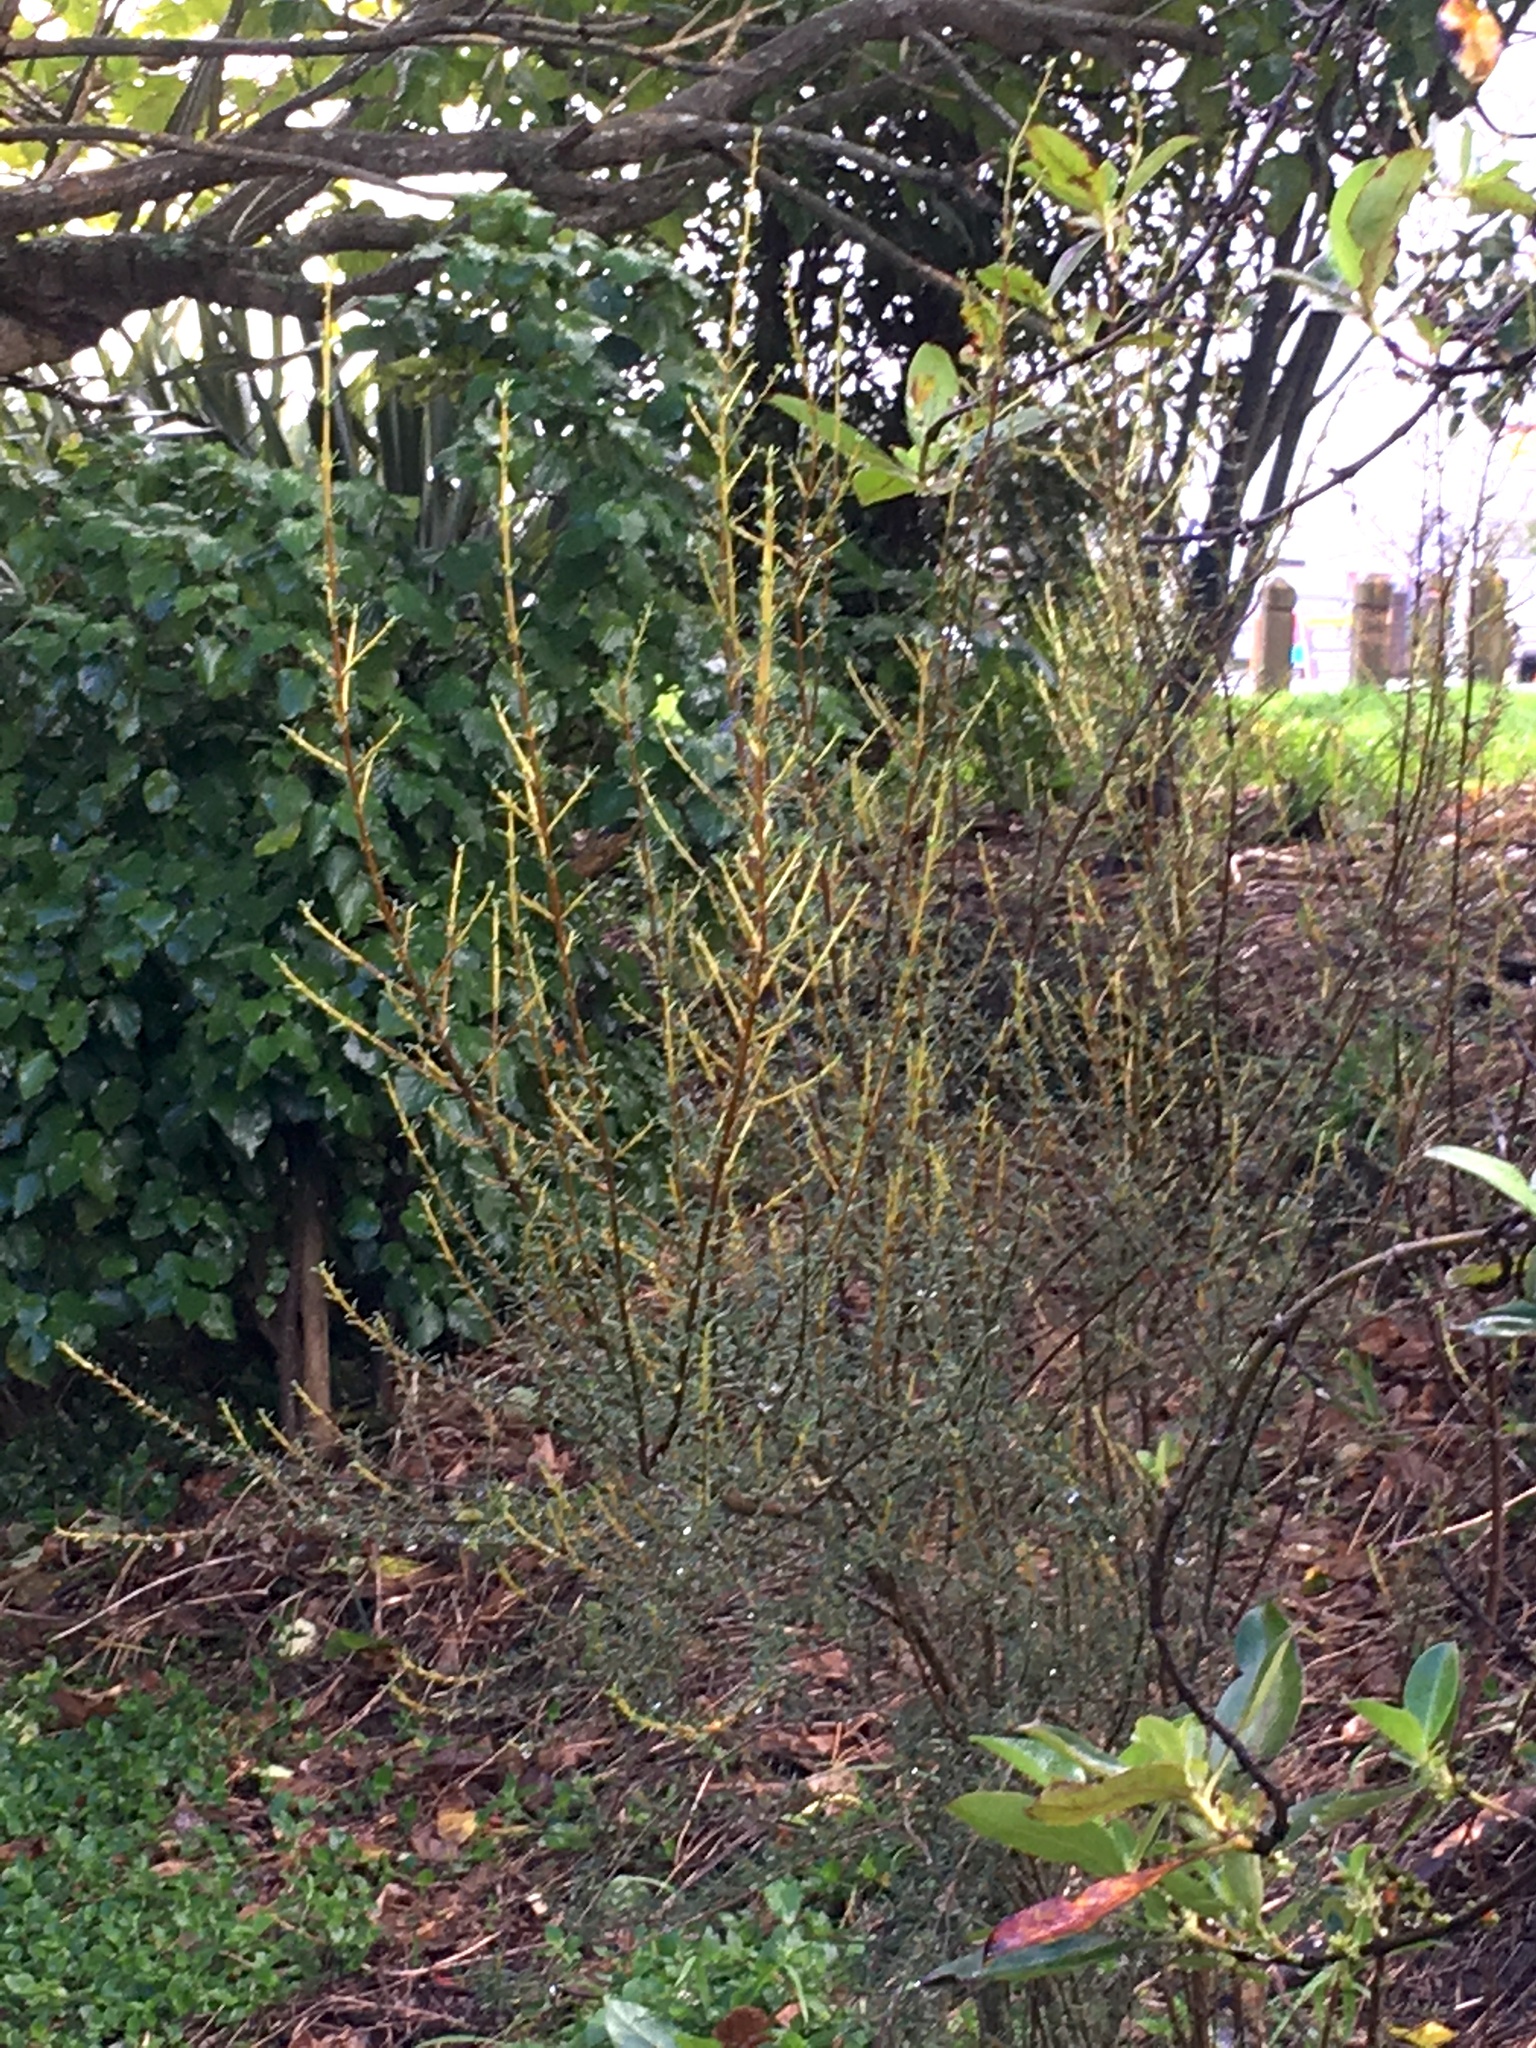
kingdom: Plantae
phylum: Tracheophyta
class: Magnoliopsida
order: Asterales
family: Asteraceae
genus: Olearia
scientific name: Olearia solandri
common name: Coastal daisybush
